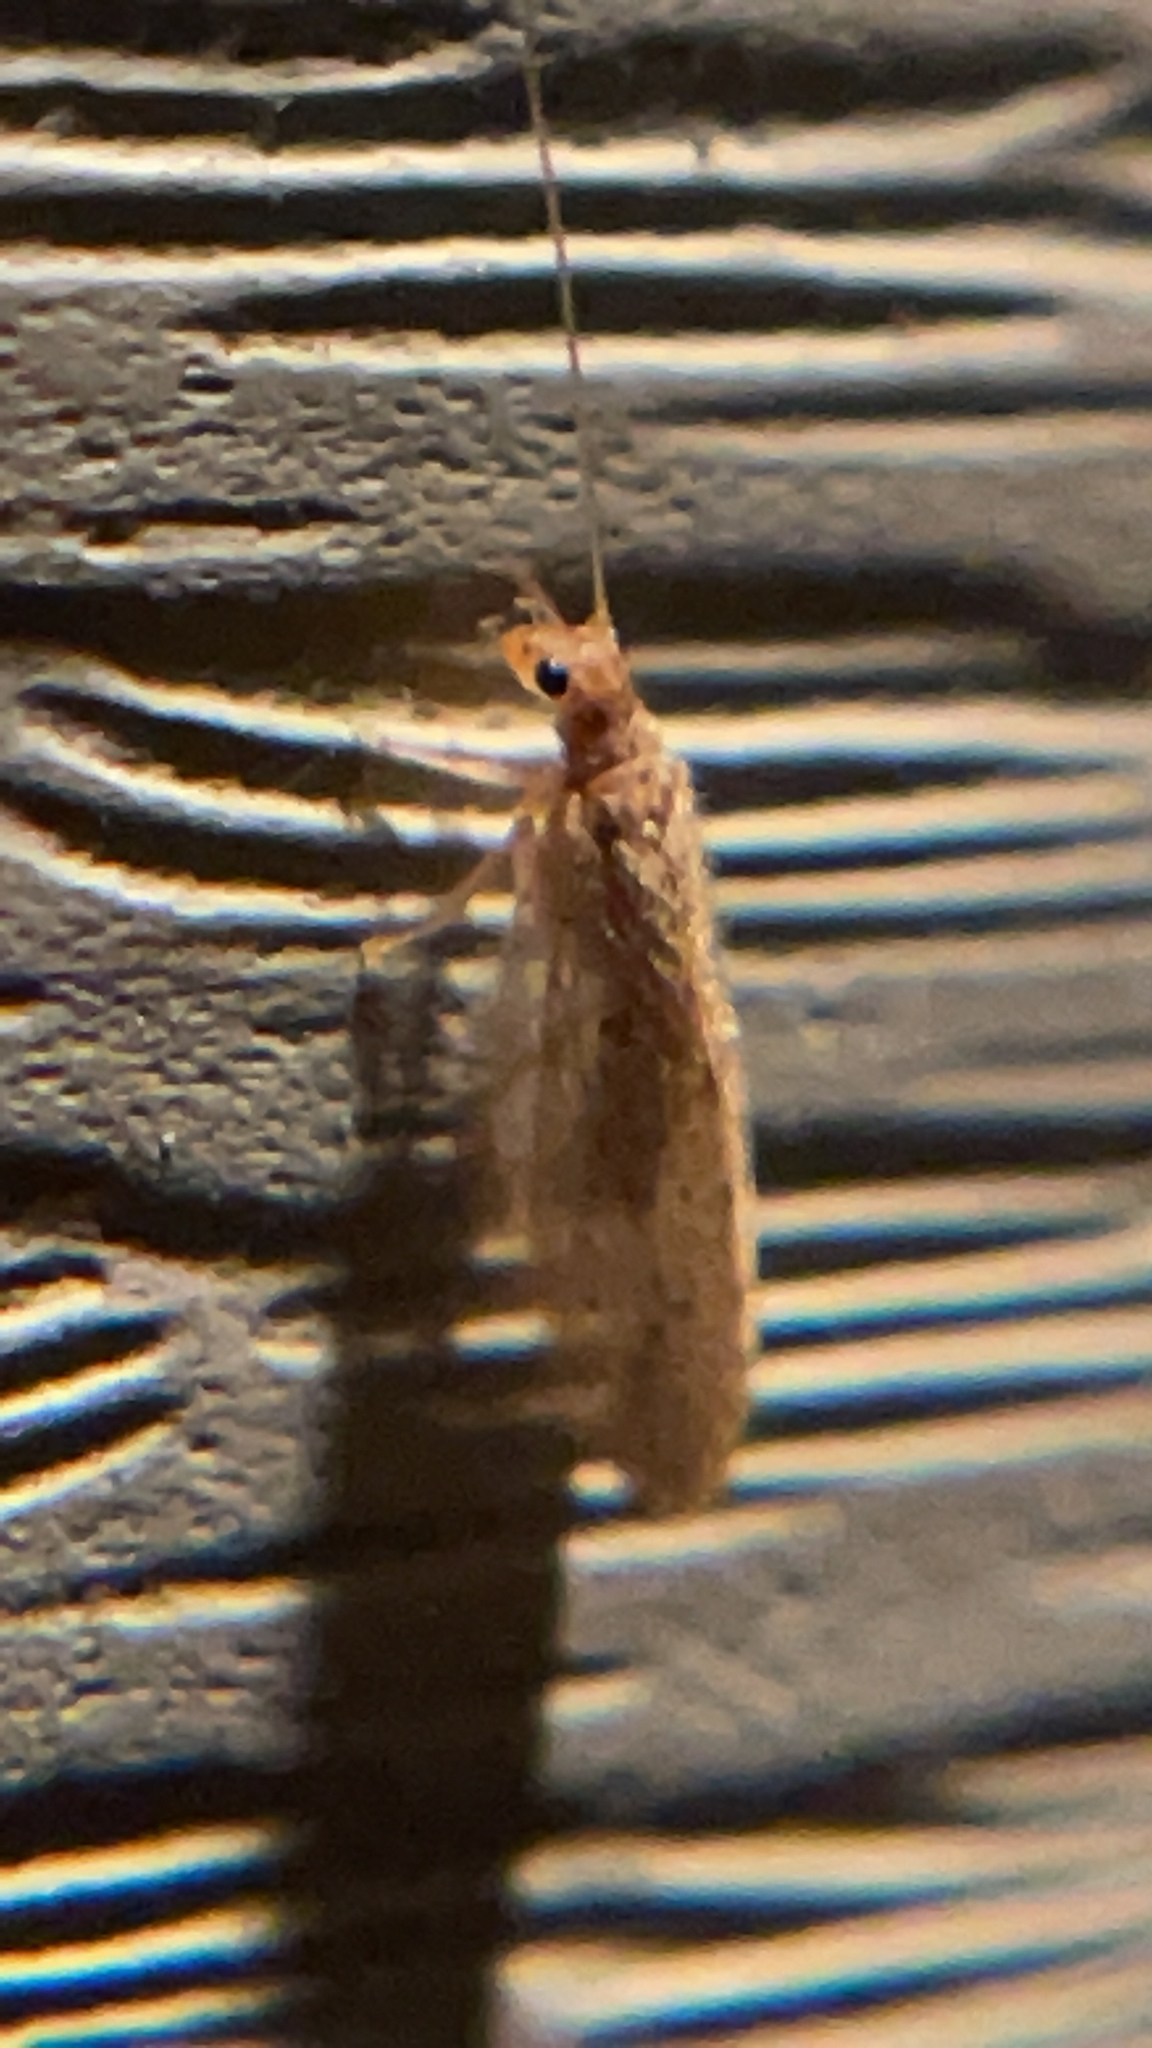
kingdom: Animalia
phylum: Arthropoda
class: Insecta
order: Neuroptera
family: Hemerobiidae
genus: Micromus
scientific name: Micromus subanticus
